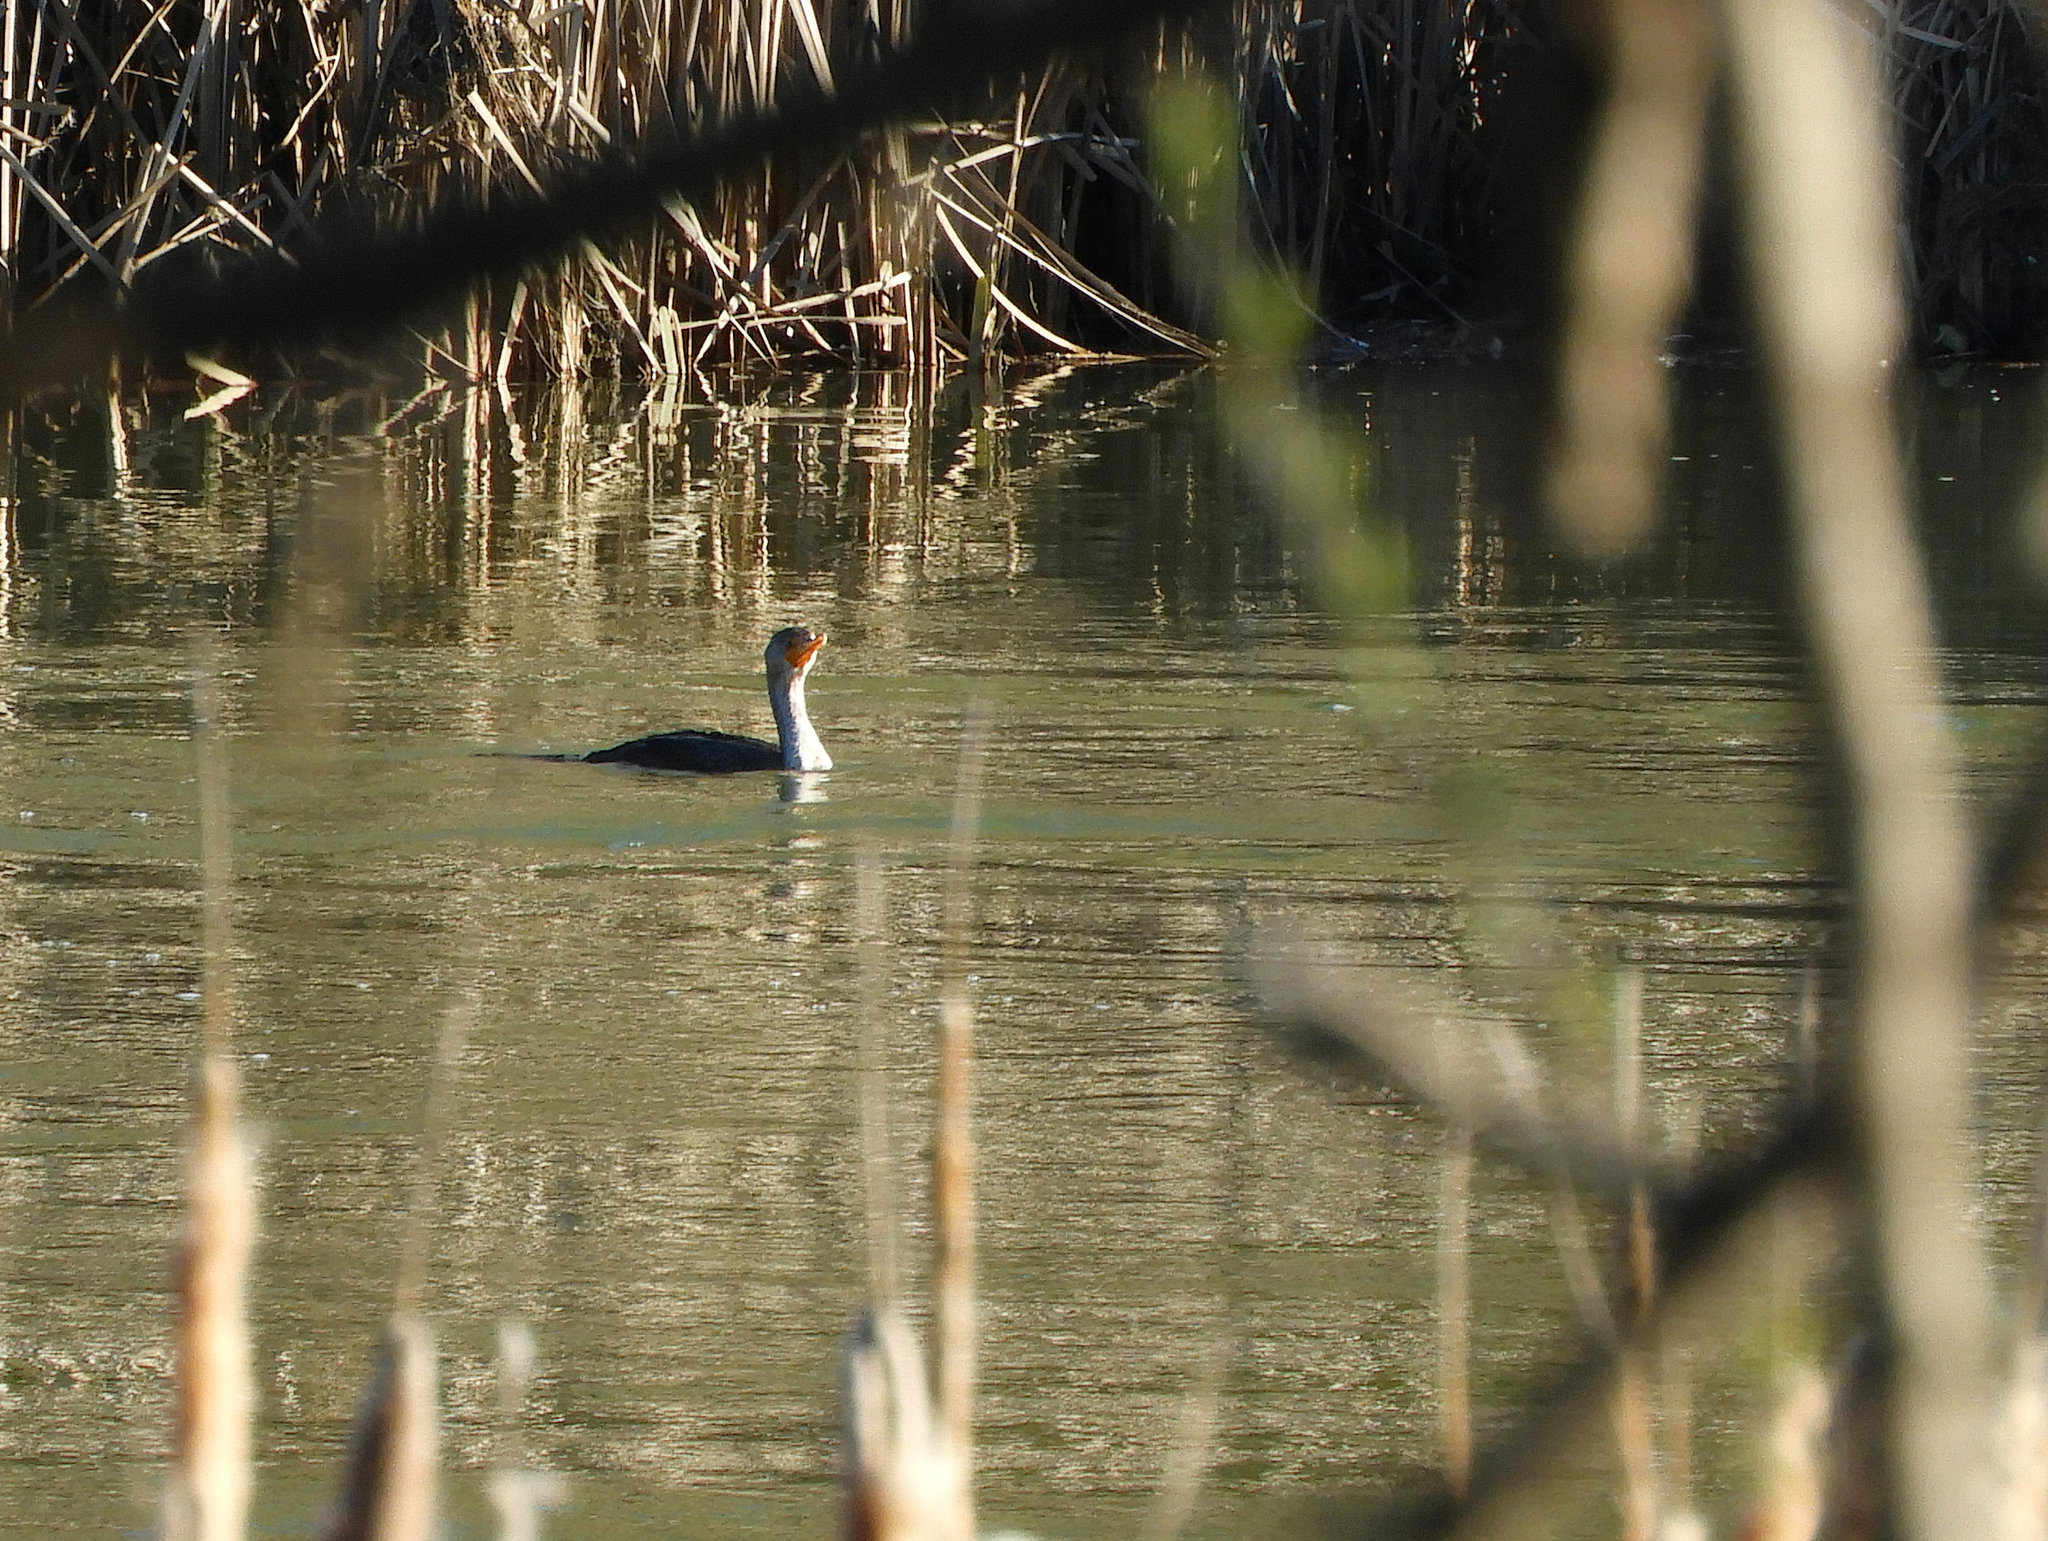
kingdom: Animalia
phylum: Chordata
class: Aves
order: Suliformes
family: Phalacrocoracidae
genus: Phalacrocorax
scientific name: Phalacrocorax auritus
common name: Double-crested cormorant
